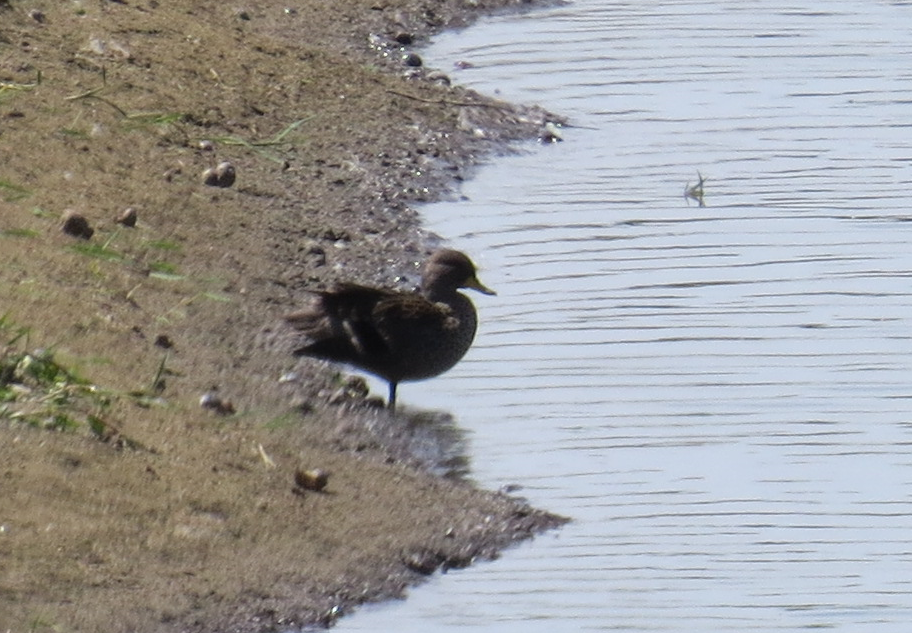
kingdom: Animalia
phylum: Chordata
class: Aves
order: Anseriformes
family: Anatidae
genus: Anas
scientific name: Anas flavirostris
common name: Yellow-billed teal
